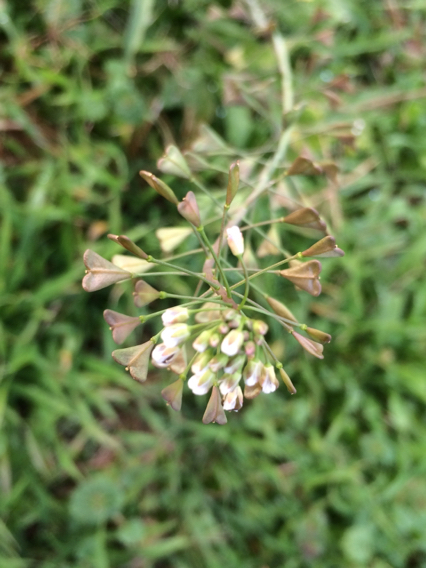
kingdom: Plantae
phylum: Tracheophyta
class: Magnoliopsida
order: Brassicales
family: Brassicaceae
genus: Capsella
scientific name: Capsella bursa-pastoris
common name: Shepherd's purse
